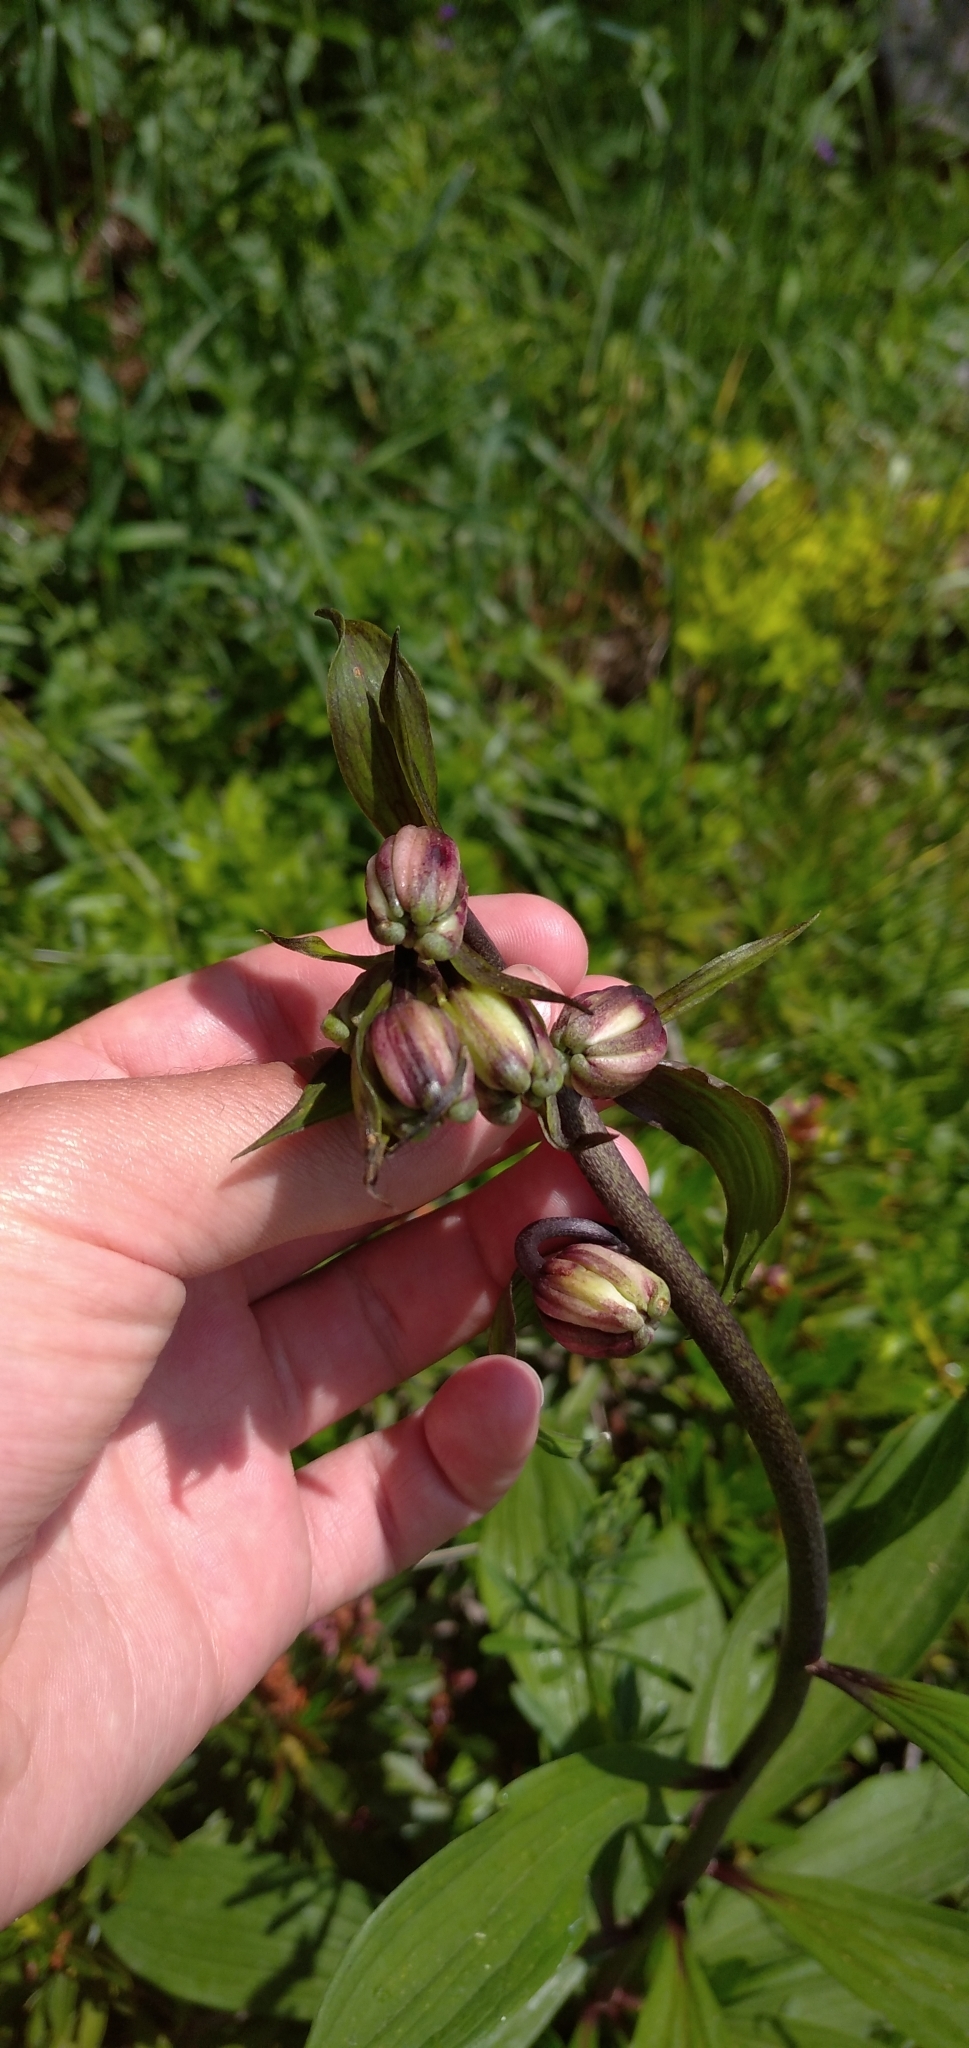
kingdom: Plantae
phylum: Tracheophyta
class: Liliopsida
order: Liliales
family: Liliaceae
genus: Lilium
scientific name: Lilium martagon
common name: Martagon lily
